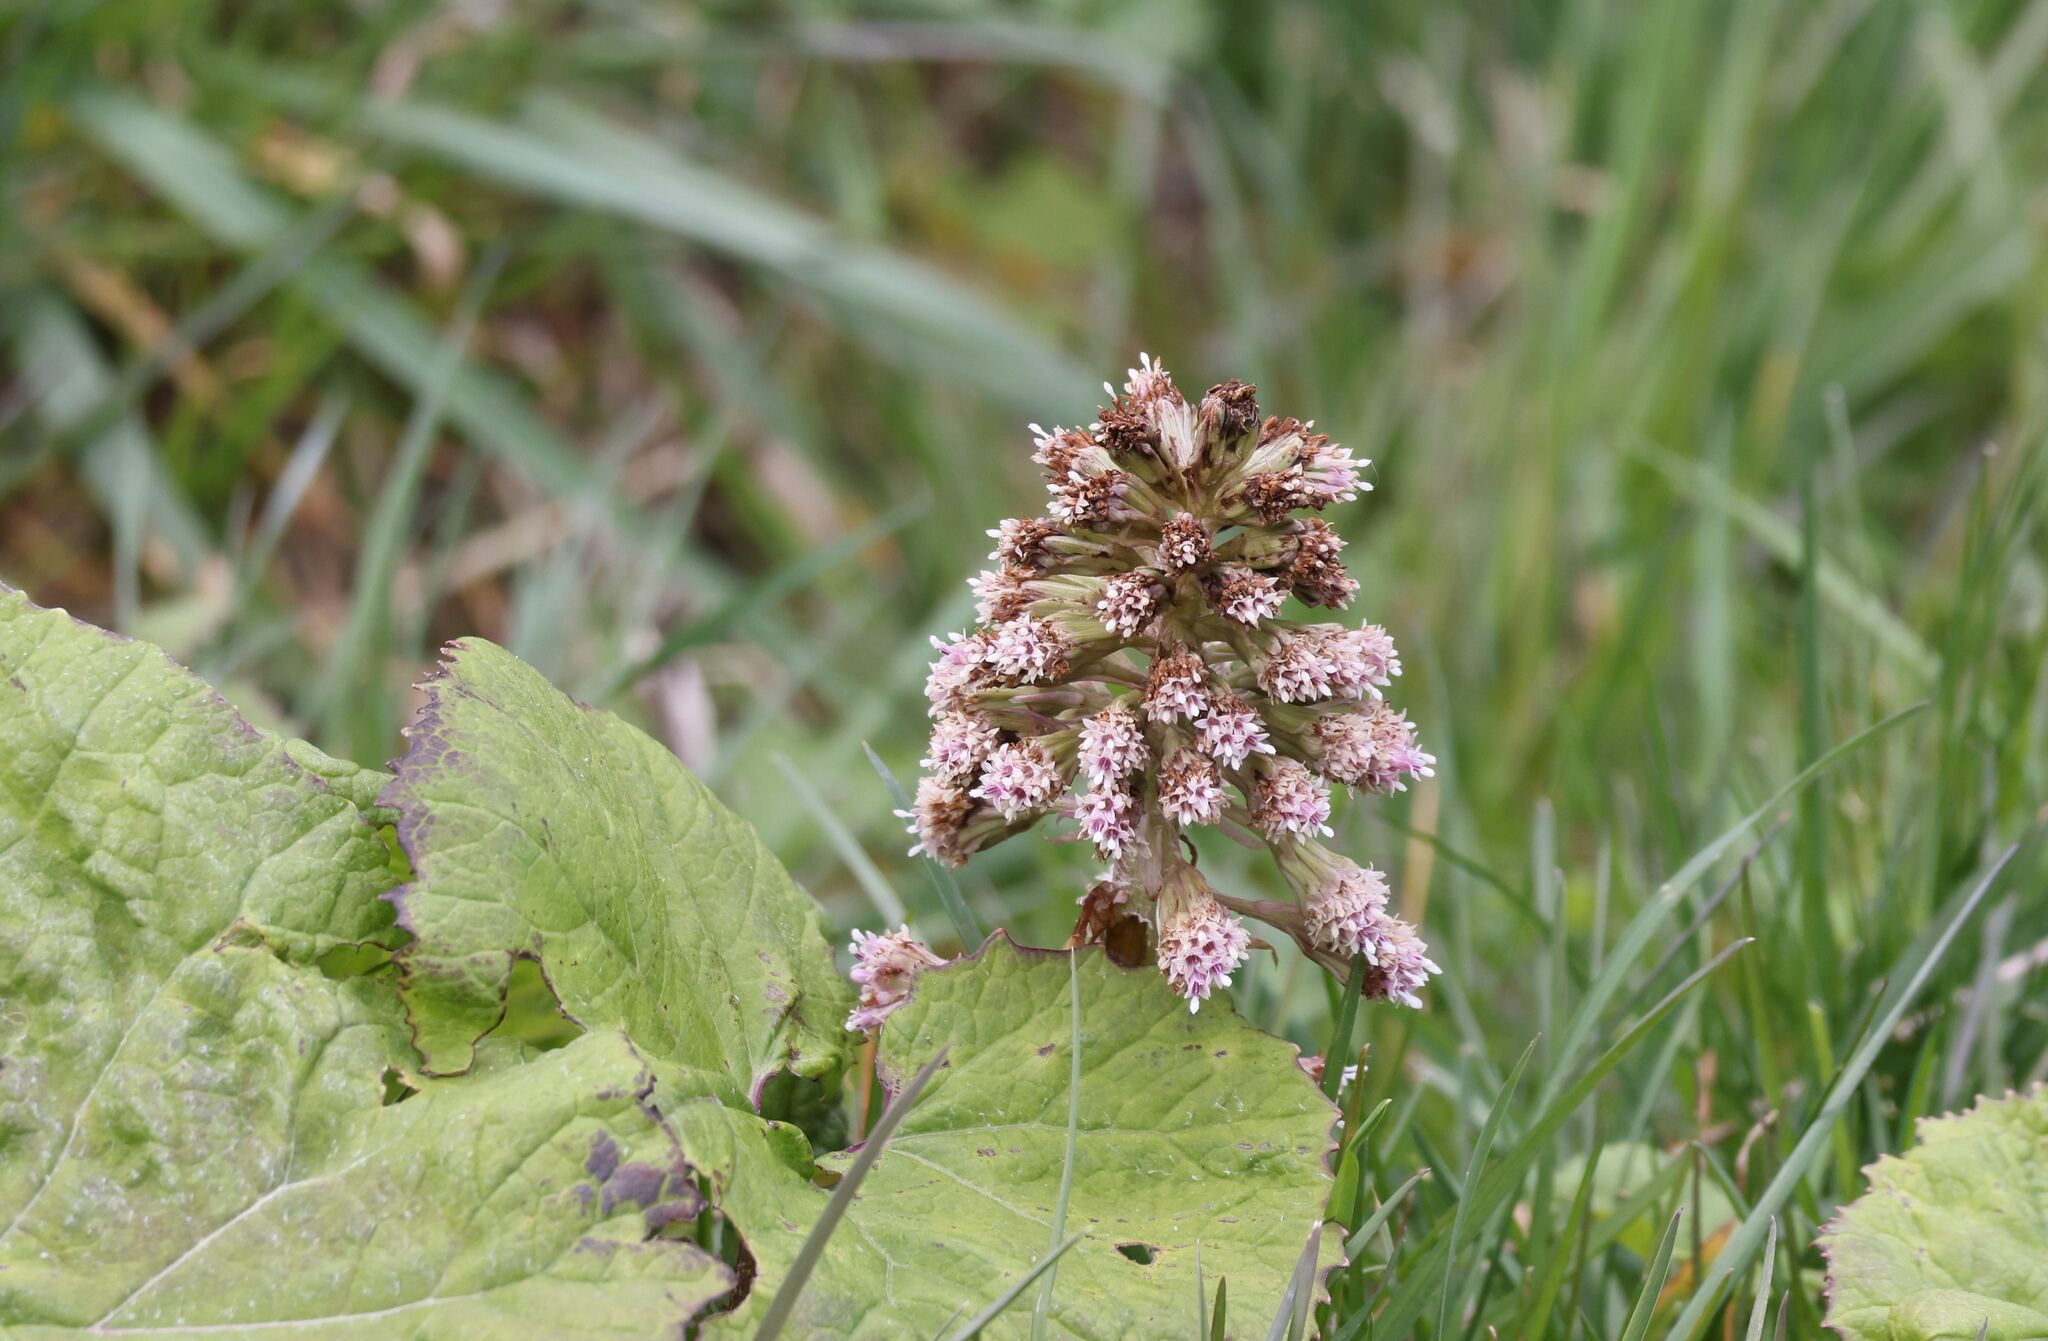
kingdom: Plantae
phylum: Tracheophyta
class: Magnoliopsida
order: Asterales
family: Asteraceae
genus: Petasites
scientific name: Petasites hybridus
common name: Butterbur
